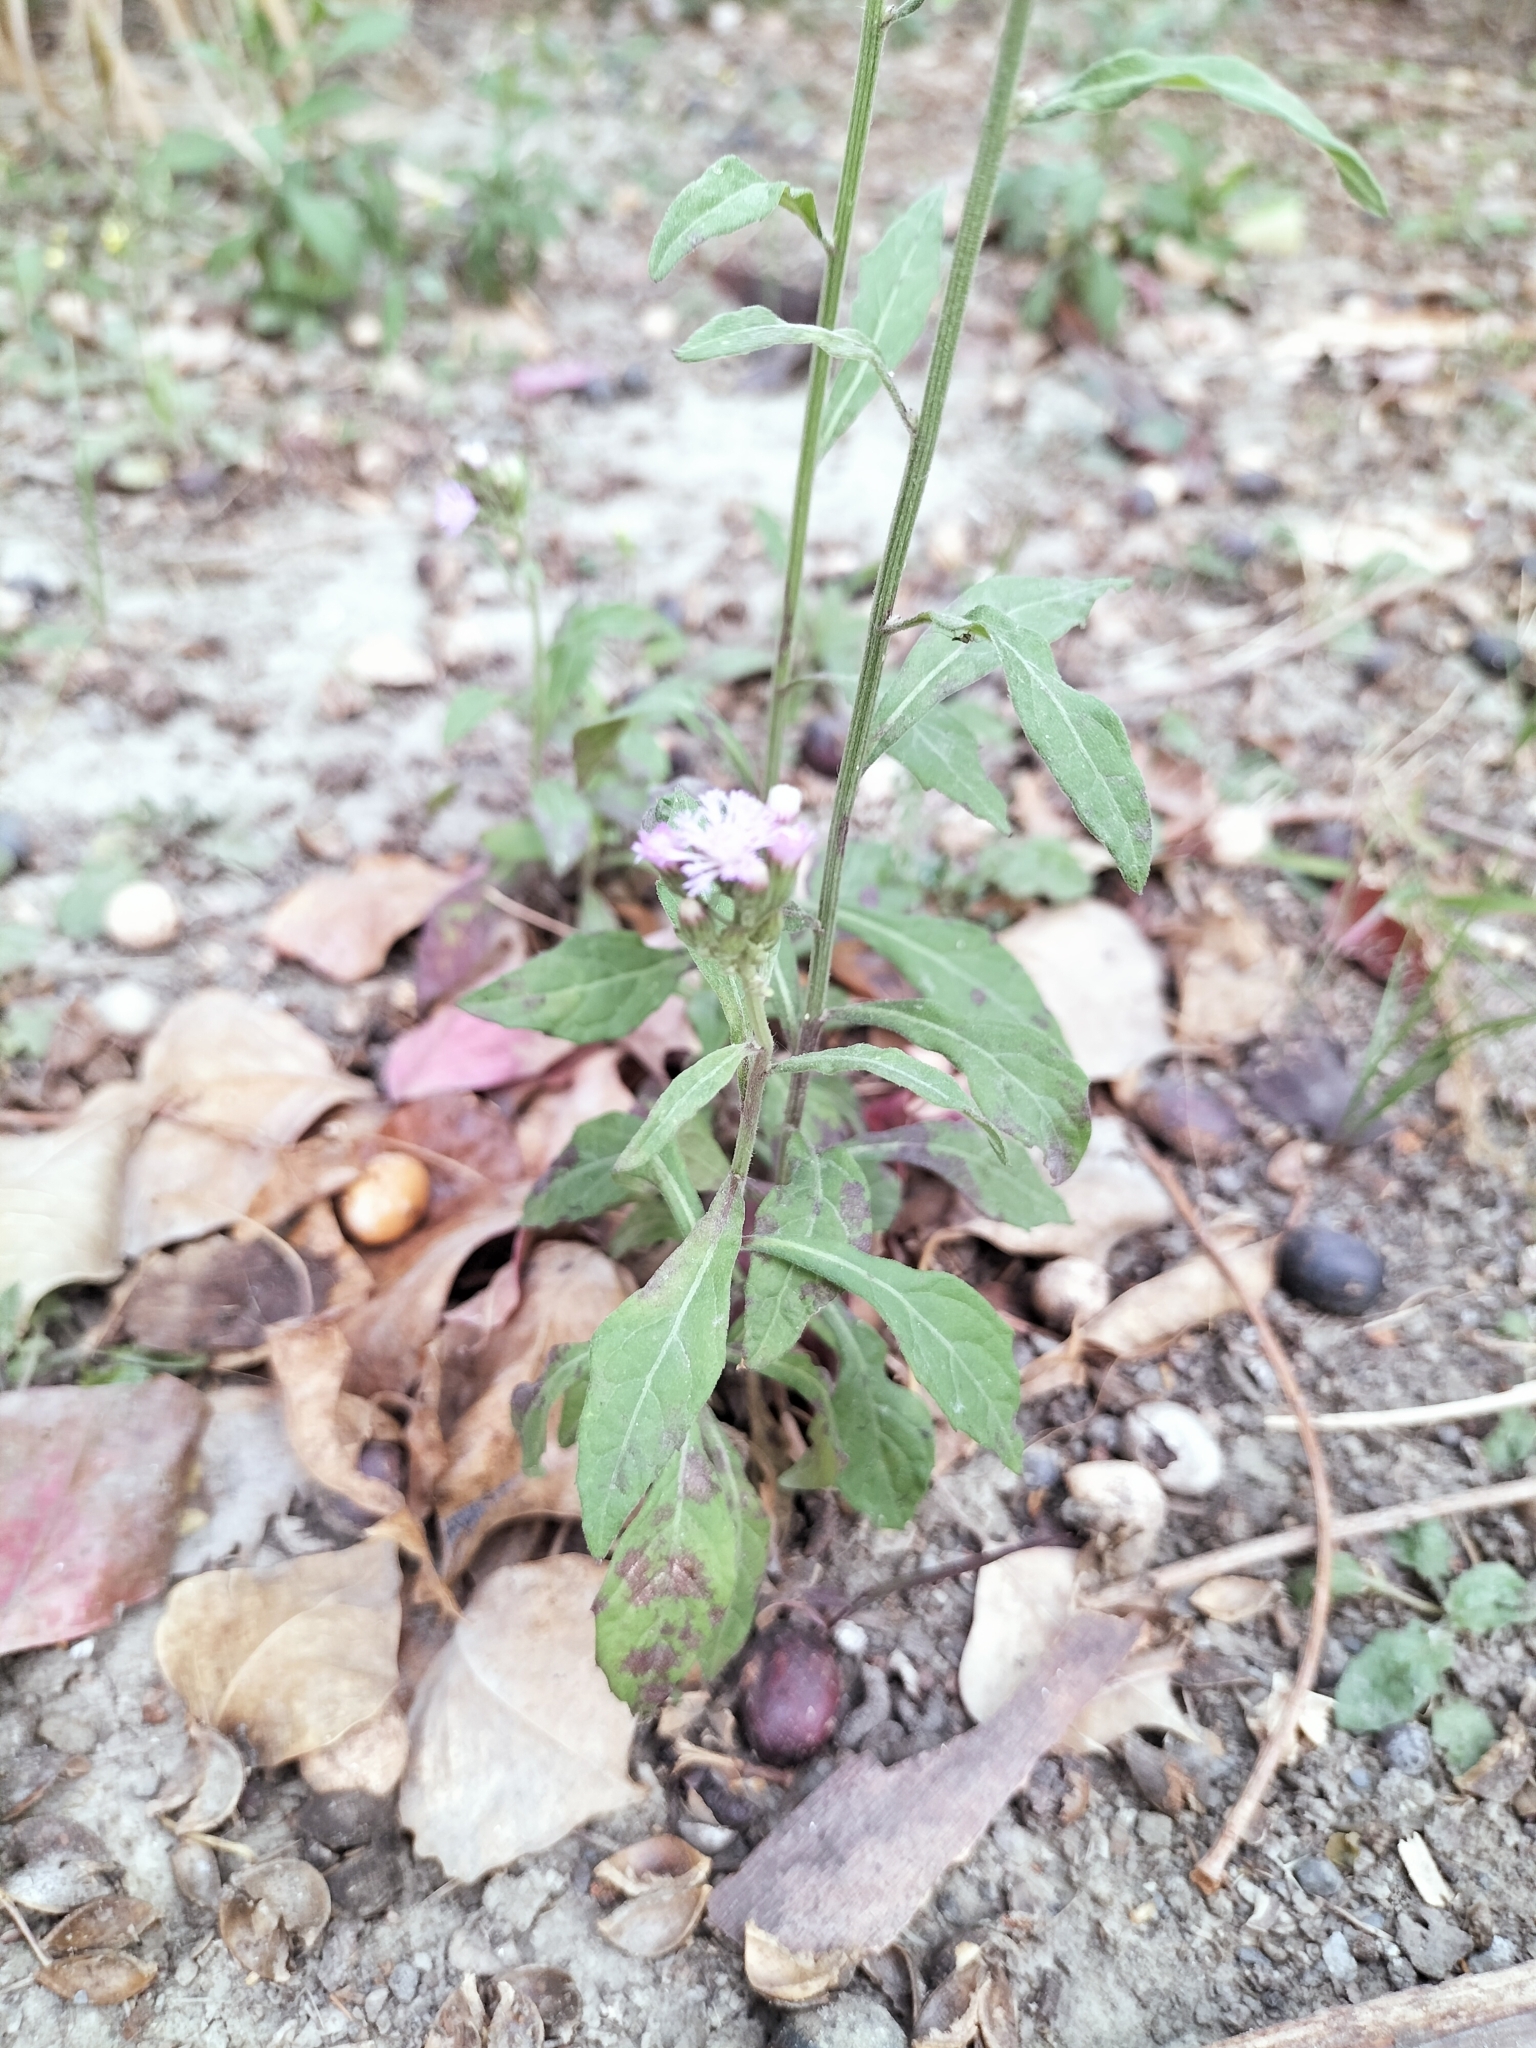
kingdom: Plantae
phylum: Tracheophyta
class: Magnoliopsida
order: Asterales
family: Asteraceae
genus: Cyanthillium
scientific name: Cyanthillium cinereum
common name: Little ironweed
